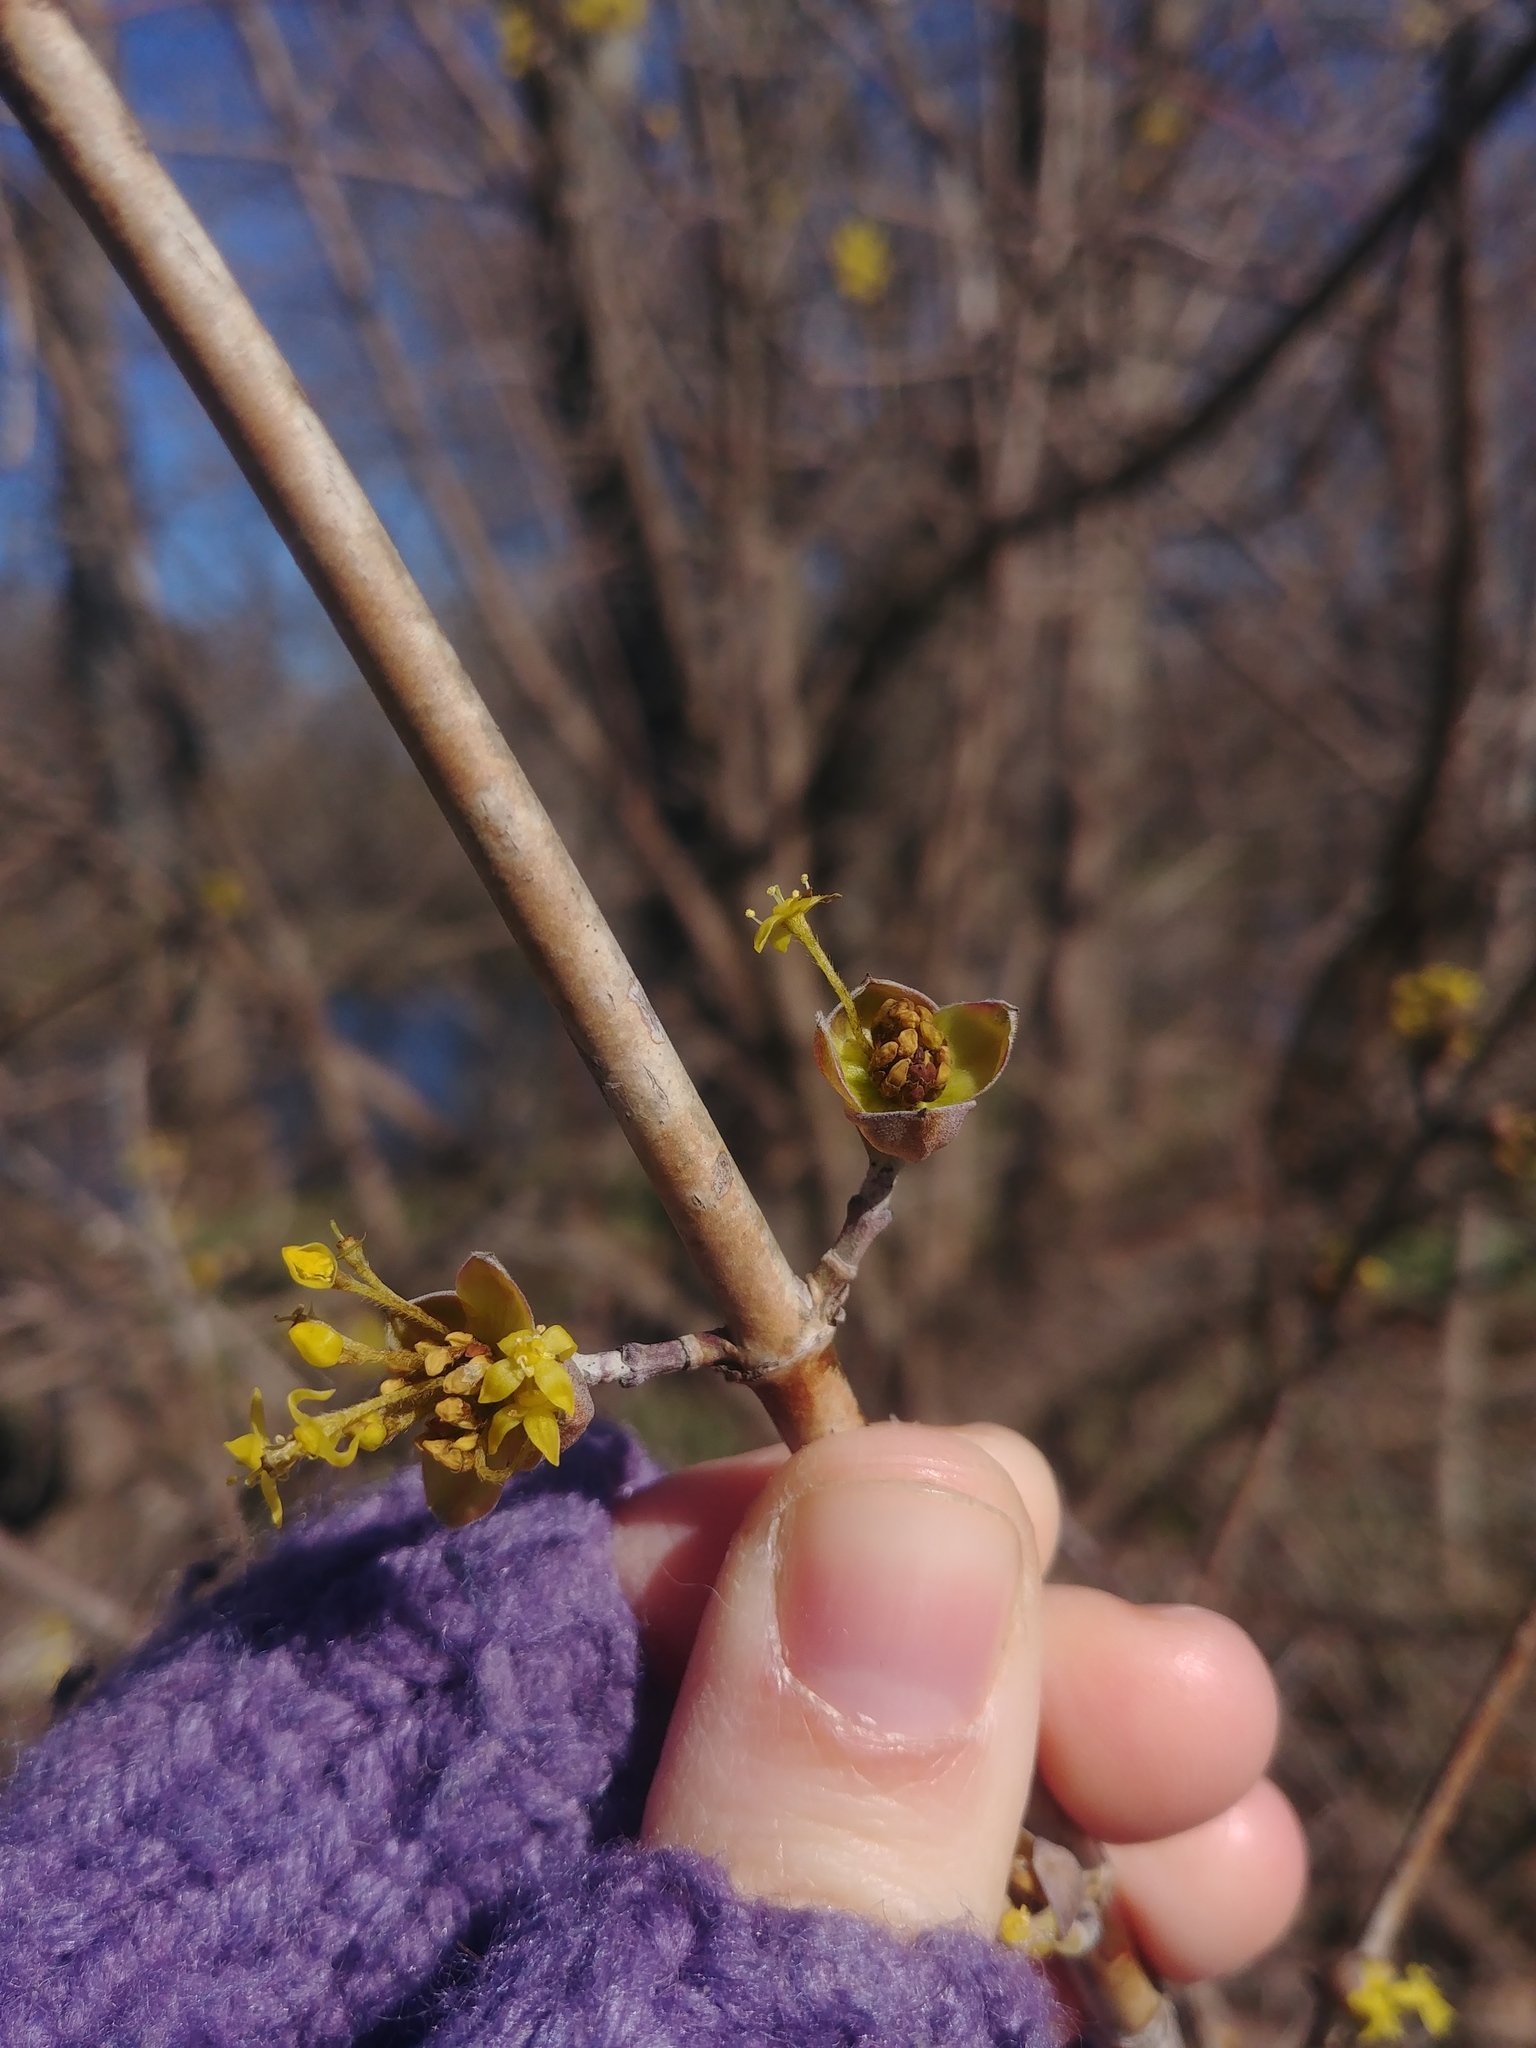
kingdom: Plantae
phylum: Tracheophyta
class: Magnoliopsida
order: Cornales
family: Cornaceae
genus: Cornus
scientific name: Cornus mas
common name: Cornelian-cherry
